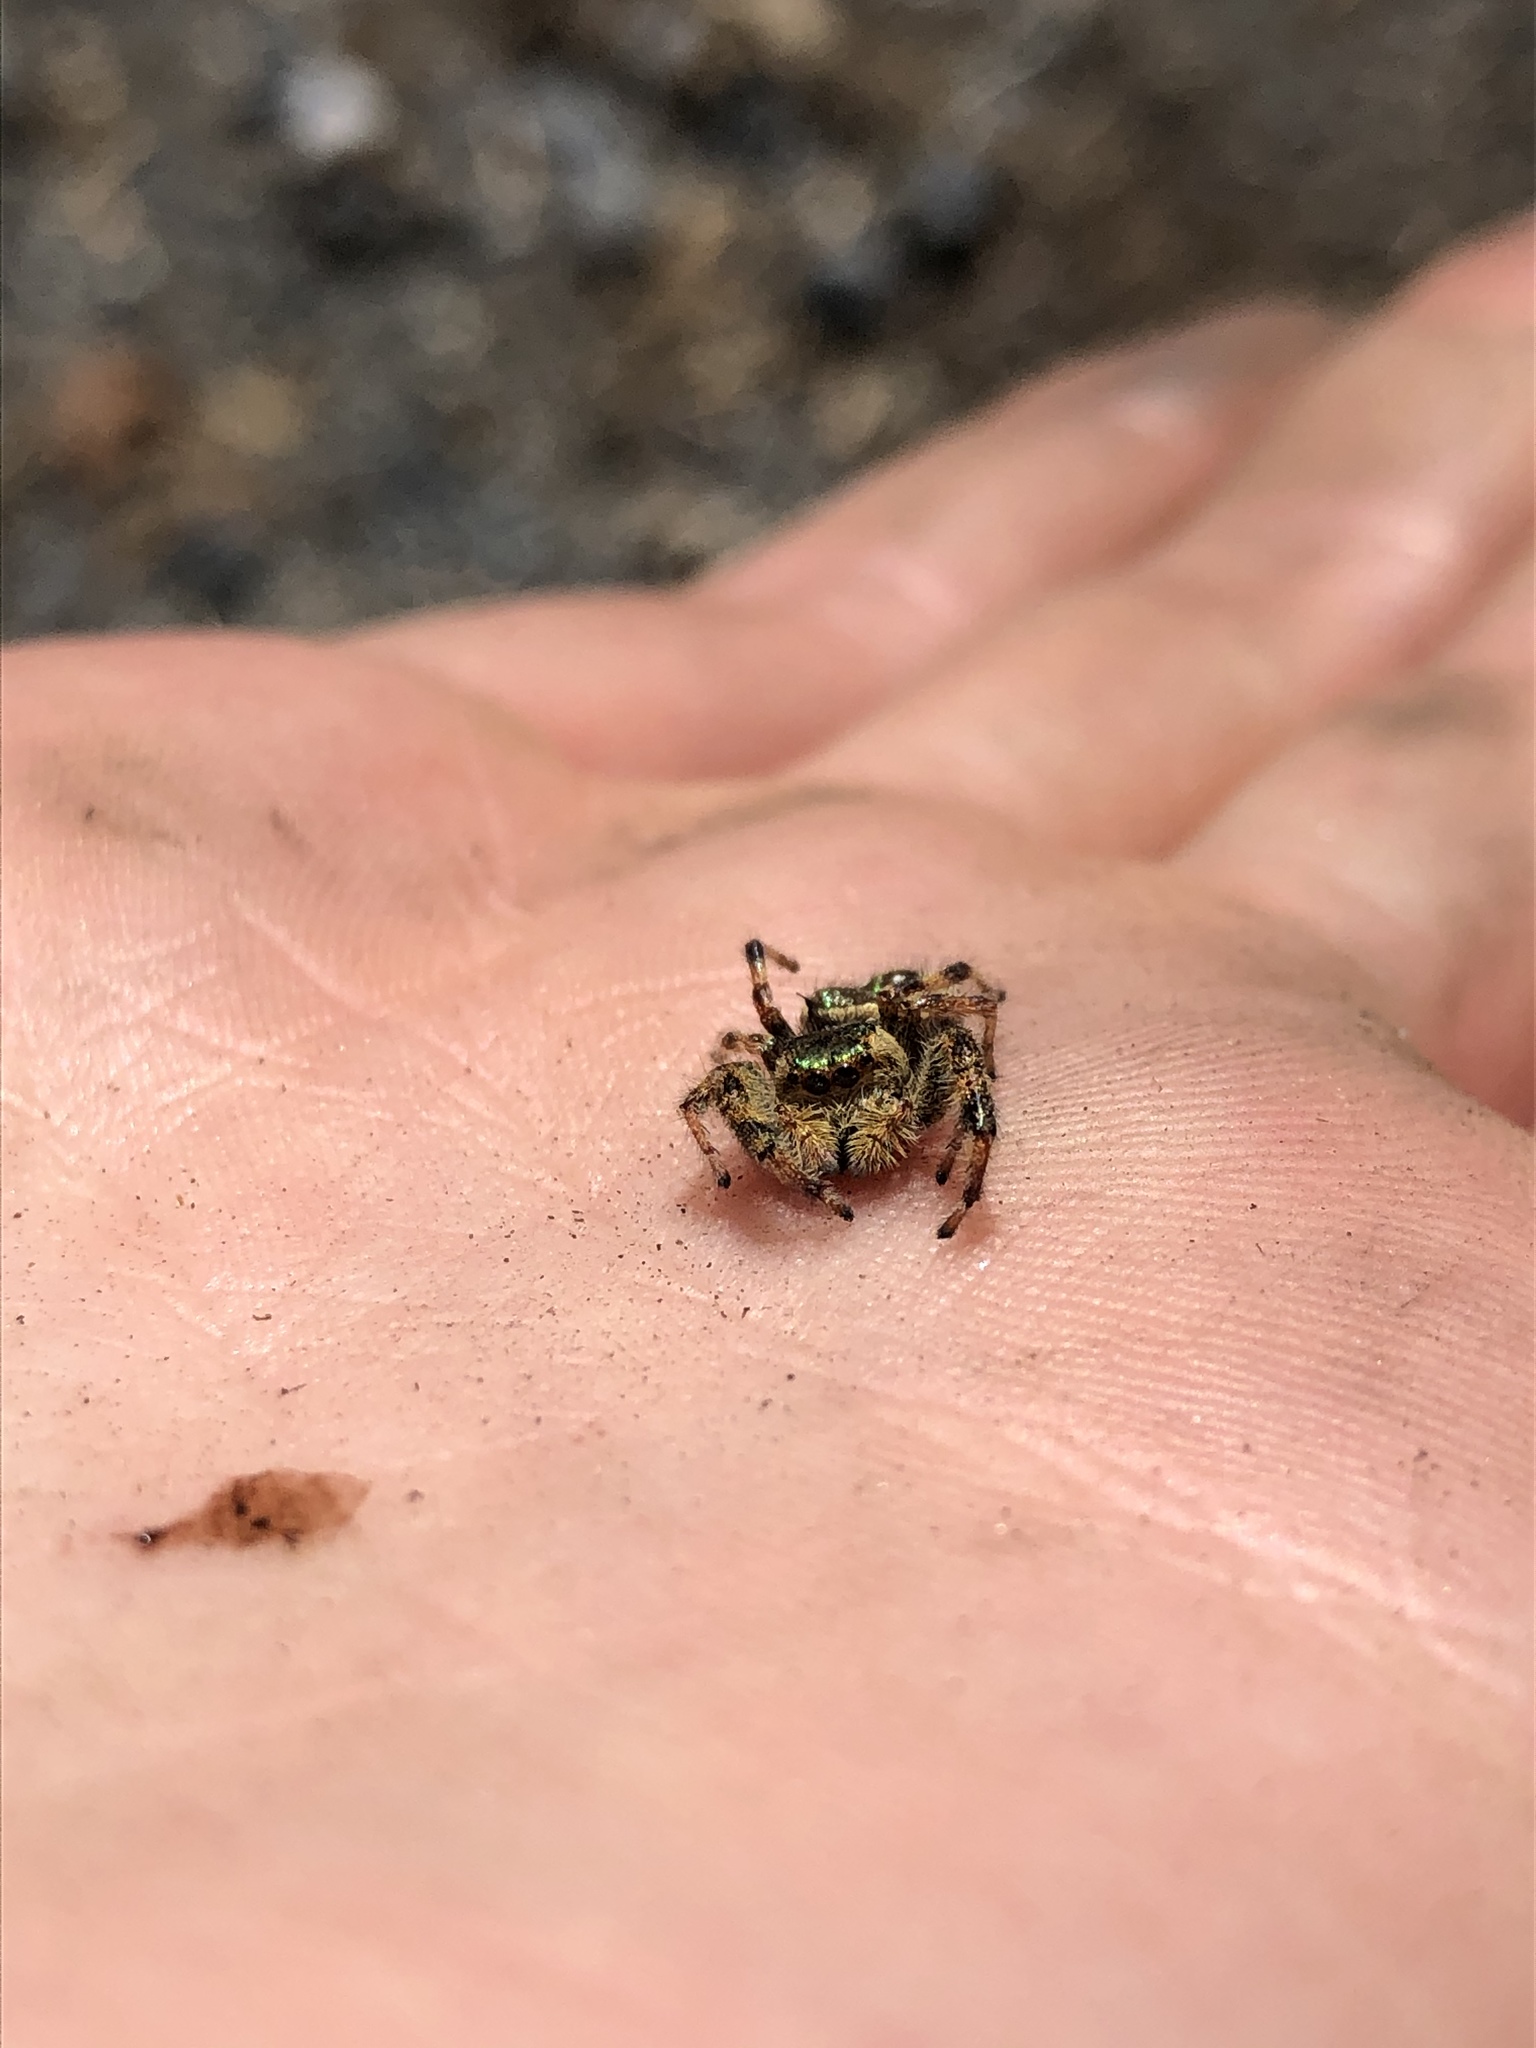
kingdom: Animalia
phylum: Arthropoda
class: Arachnida
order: Araneae
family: Salticidae
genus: Paraphidippus
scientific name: Paraphidippus aurantius
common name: Jumping spiders
